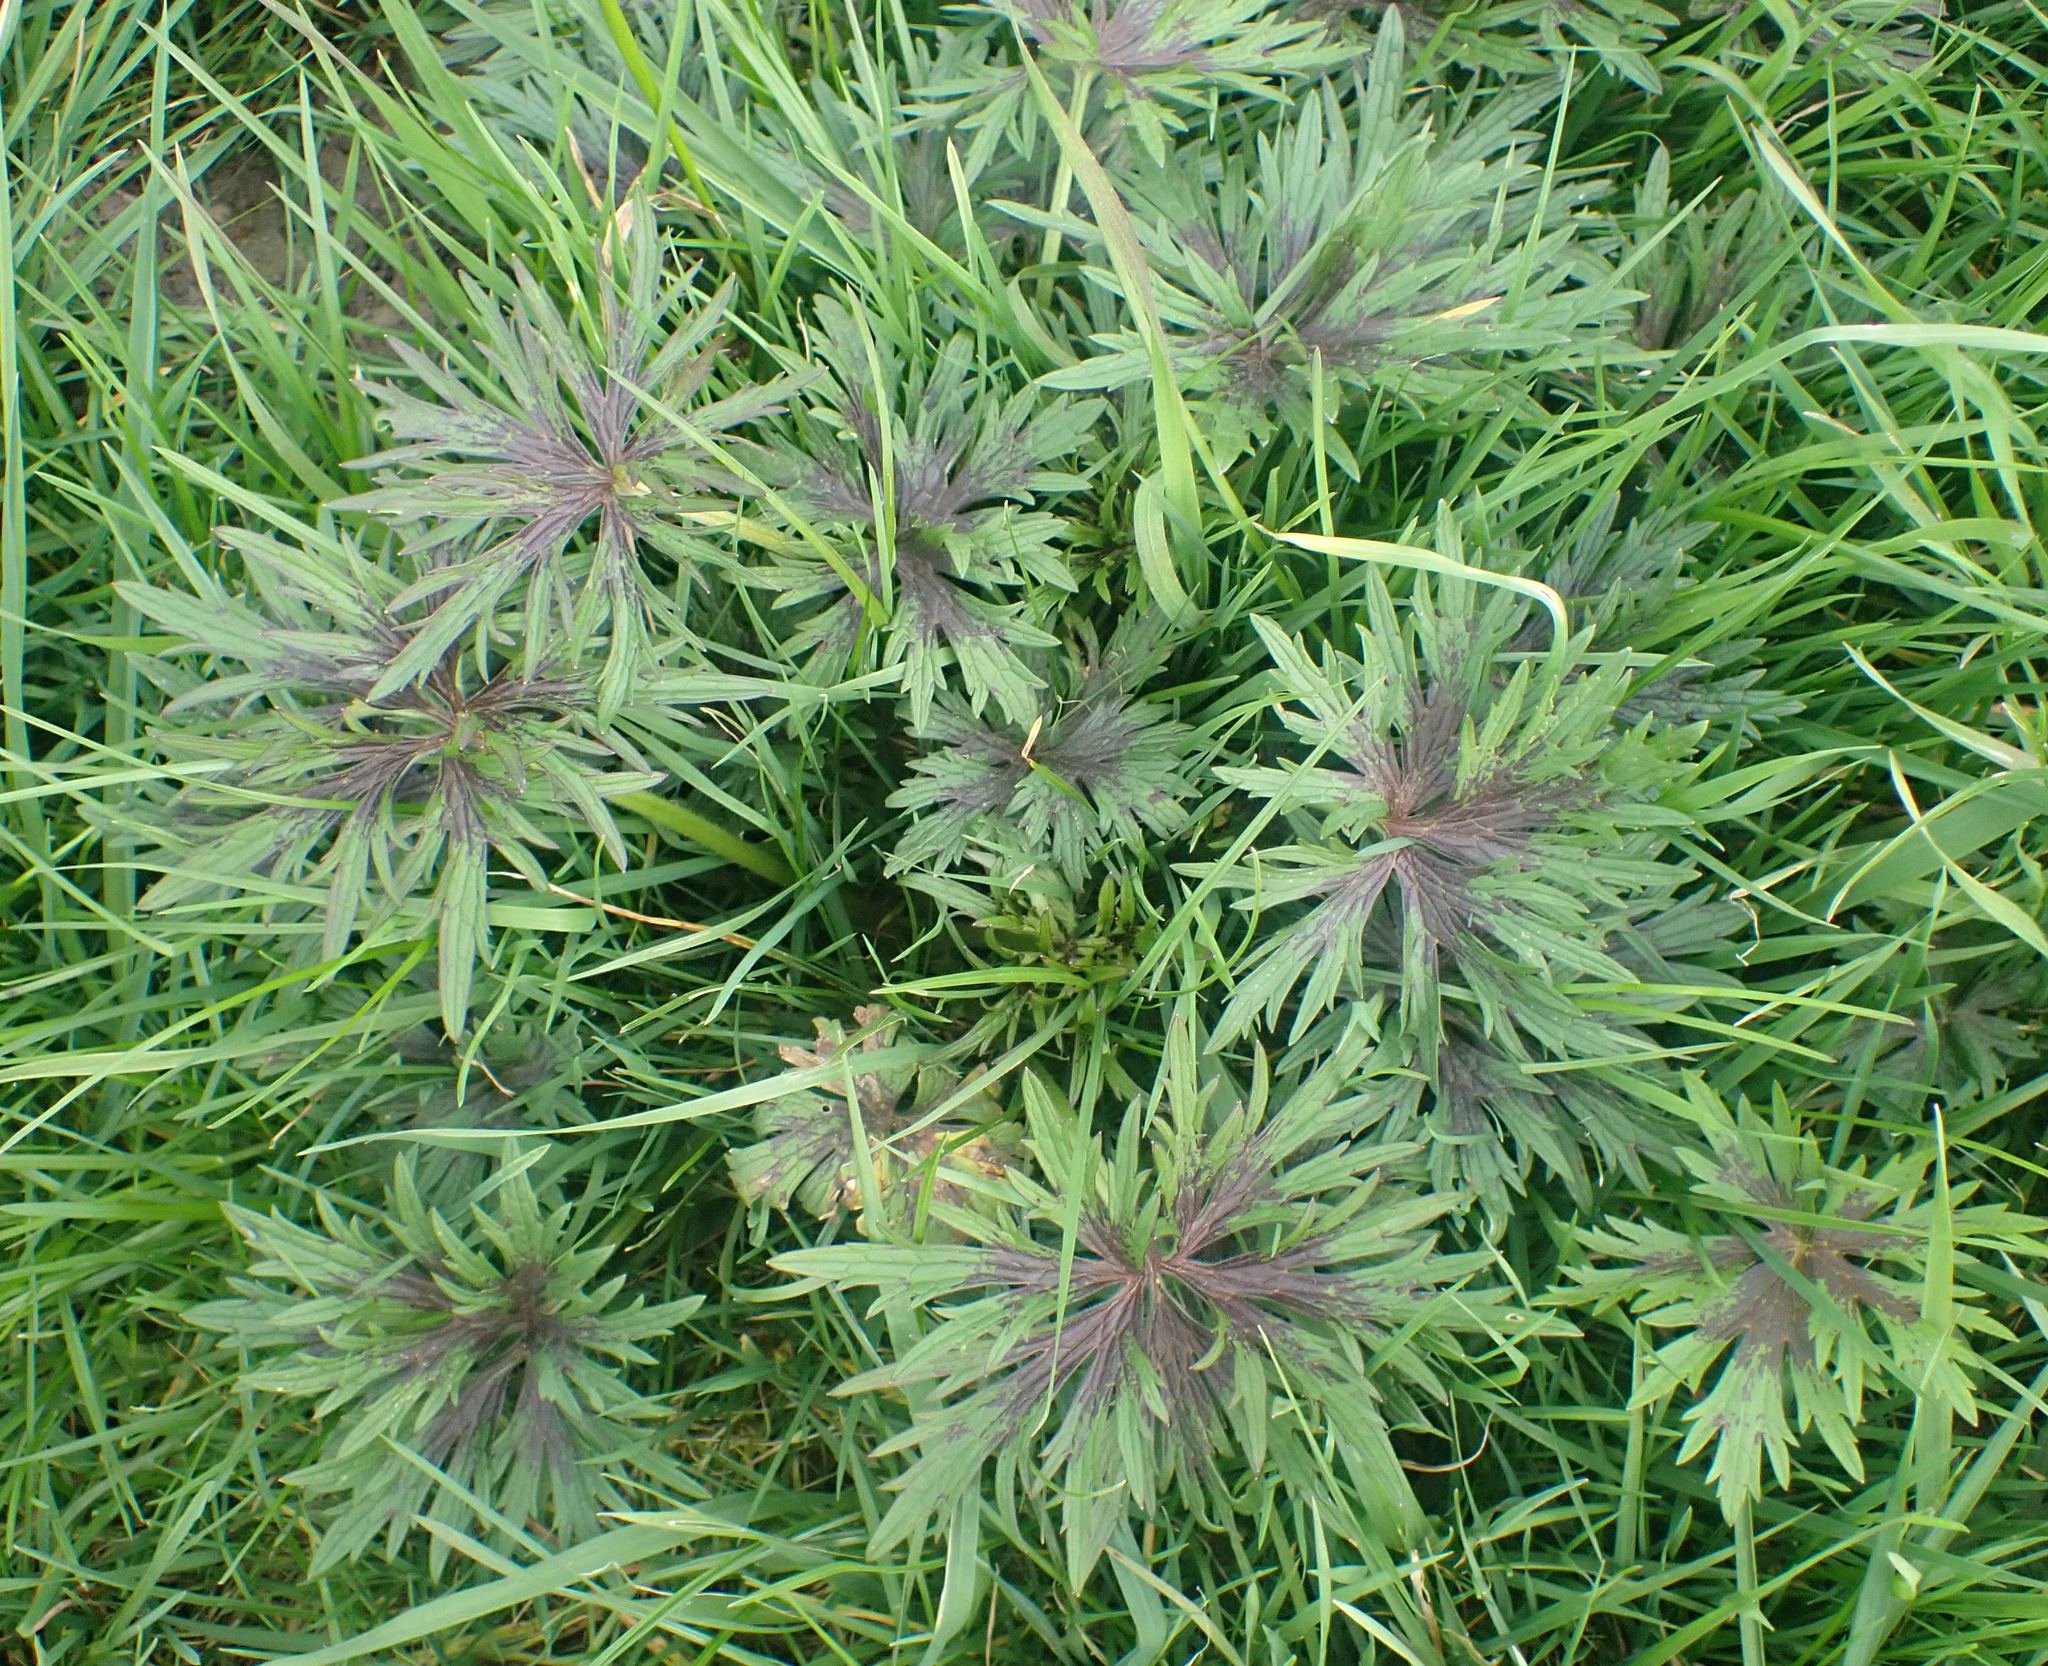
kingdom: Plantae
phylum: Tracheophyta
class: Magnoliopsida
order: Ranunculales
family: Ranunculaceae
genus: Ranunculus
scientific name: Ranunculus acris
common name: Meadow buttercup
